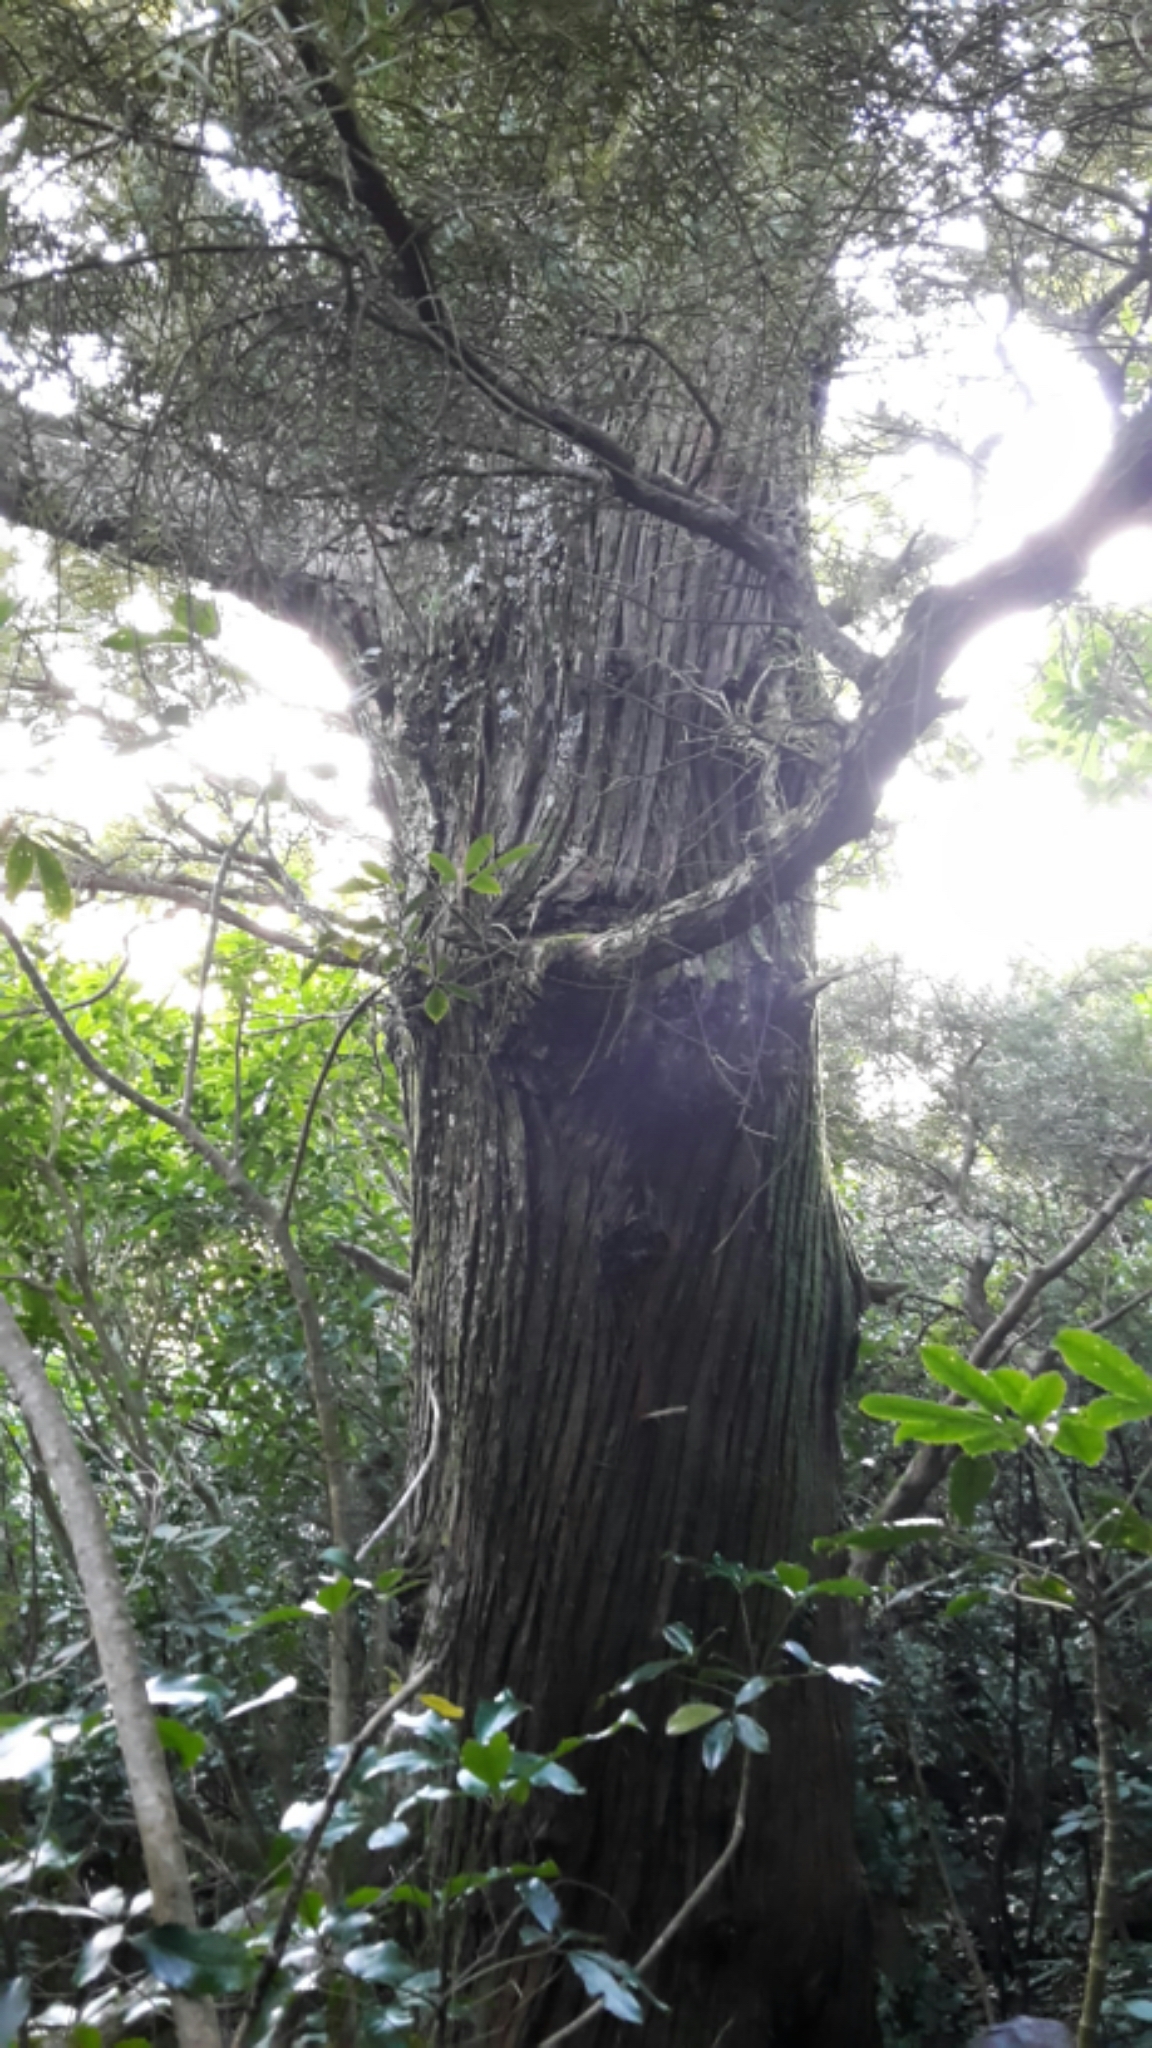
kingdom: Plantae
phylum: Tracheophyta
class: Pinopsida
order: Pinales
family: Podocarpaceae
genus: Podocarpus
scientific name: Podocarpus totara
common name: Totara
